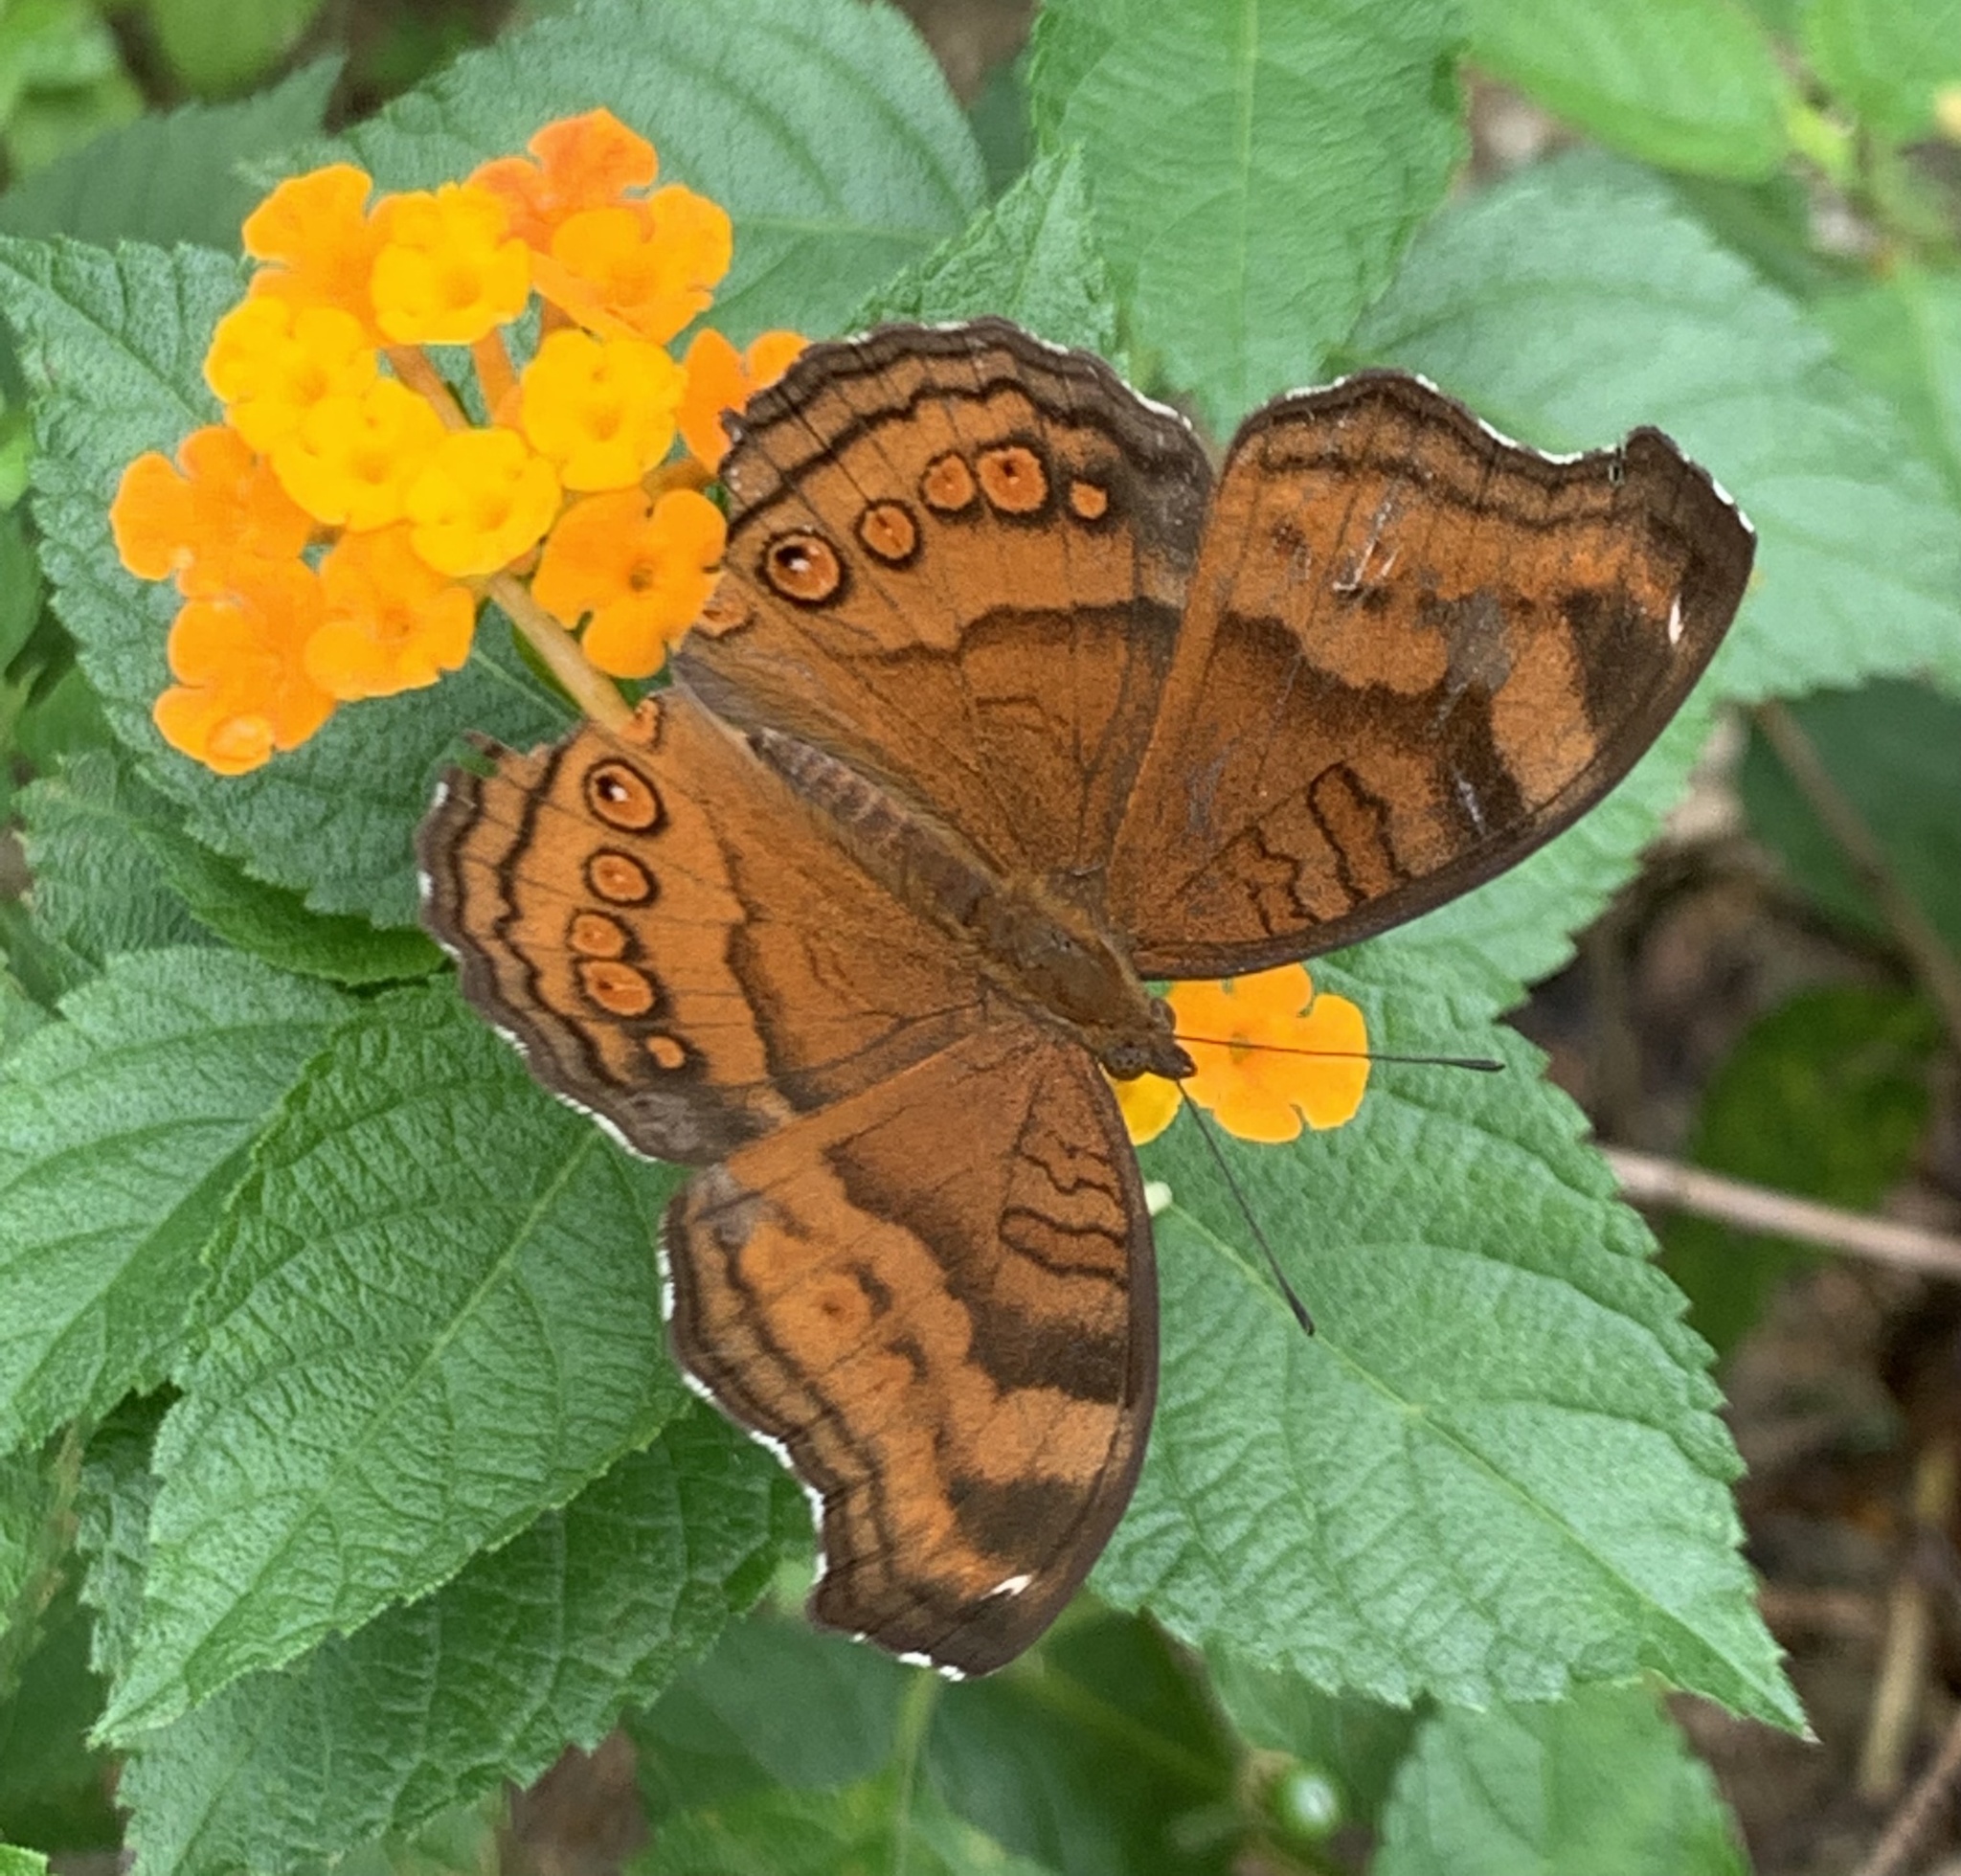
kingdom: Animalia
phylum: Arthropoda
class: Insecta
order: Lepidoptera
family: Nymphalidae
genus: Junonia
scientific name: Junonia hedonia
